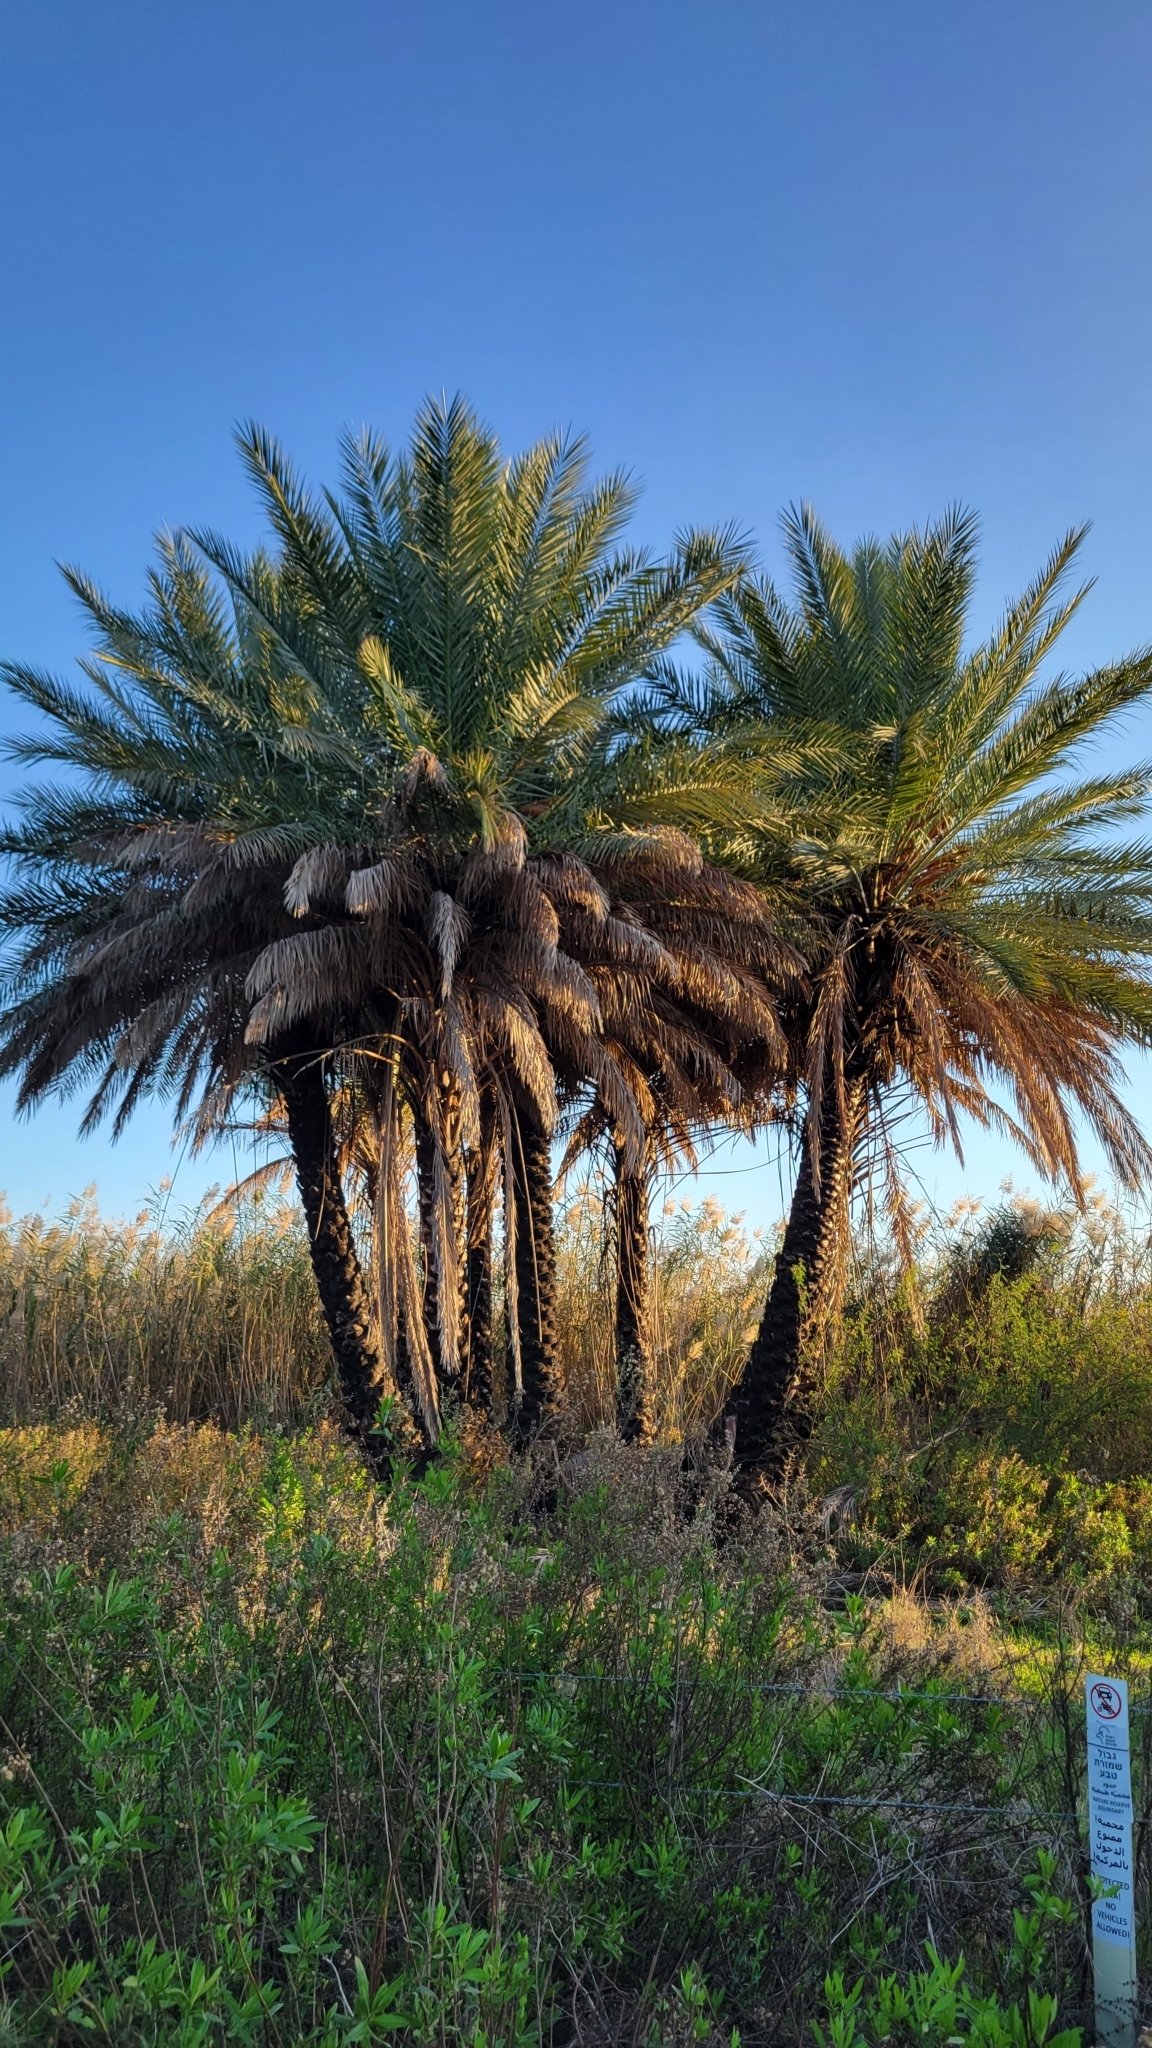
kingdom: Plantae
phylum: Tracheophyta
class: Liliopsida
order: Arecales
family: Arecaceae
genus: Phoenix
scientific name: Phoenix dactylifera
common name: Date palm
